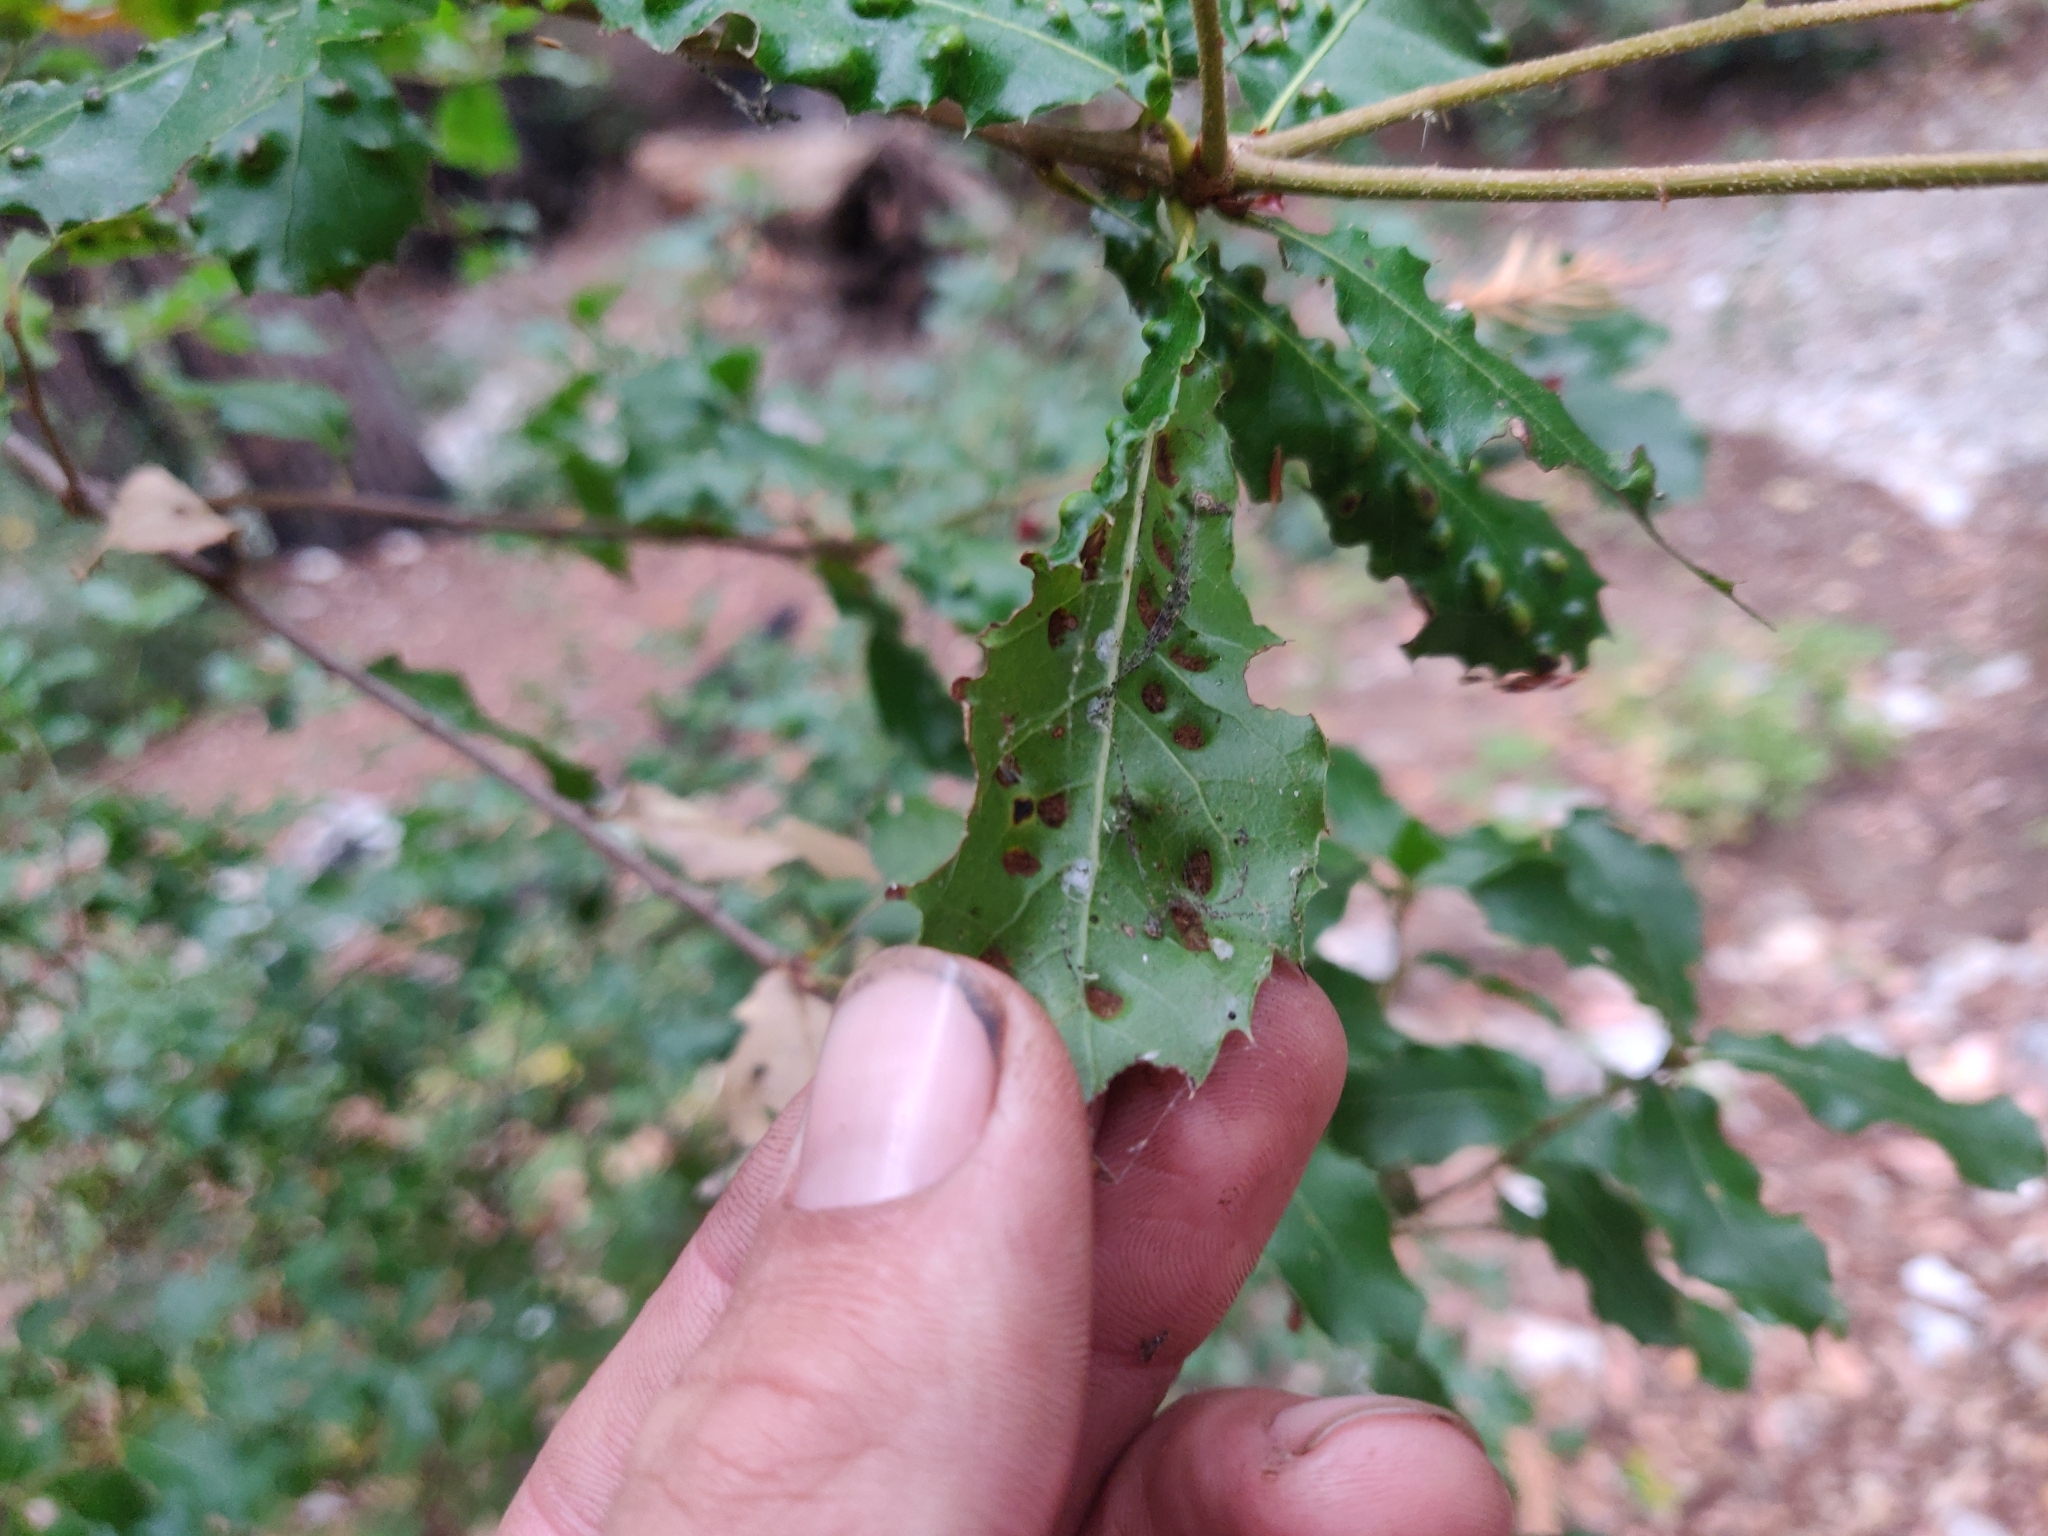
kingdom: Animalia
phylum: Arthropoda
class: Arachnida
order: Trombidiformes
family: Eriophyidae
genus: Aceria
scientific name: Aceria
